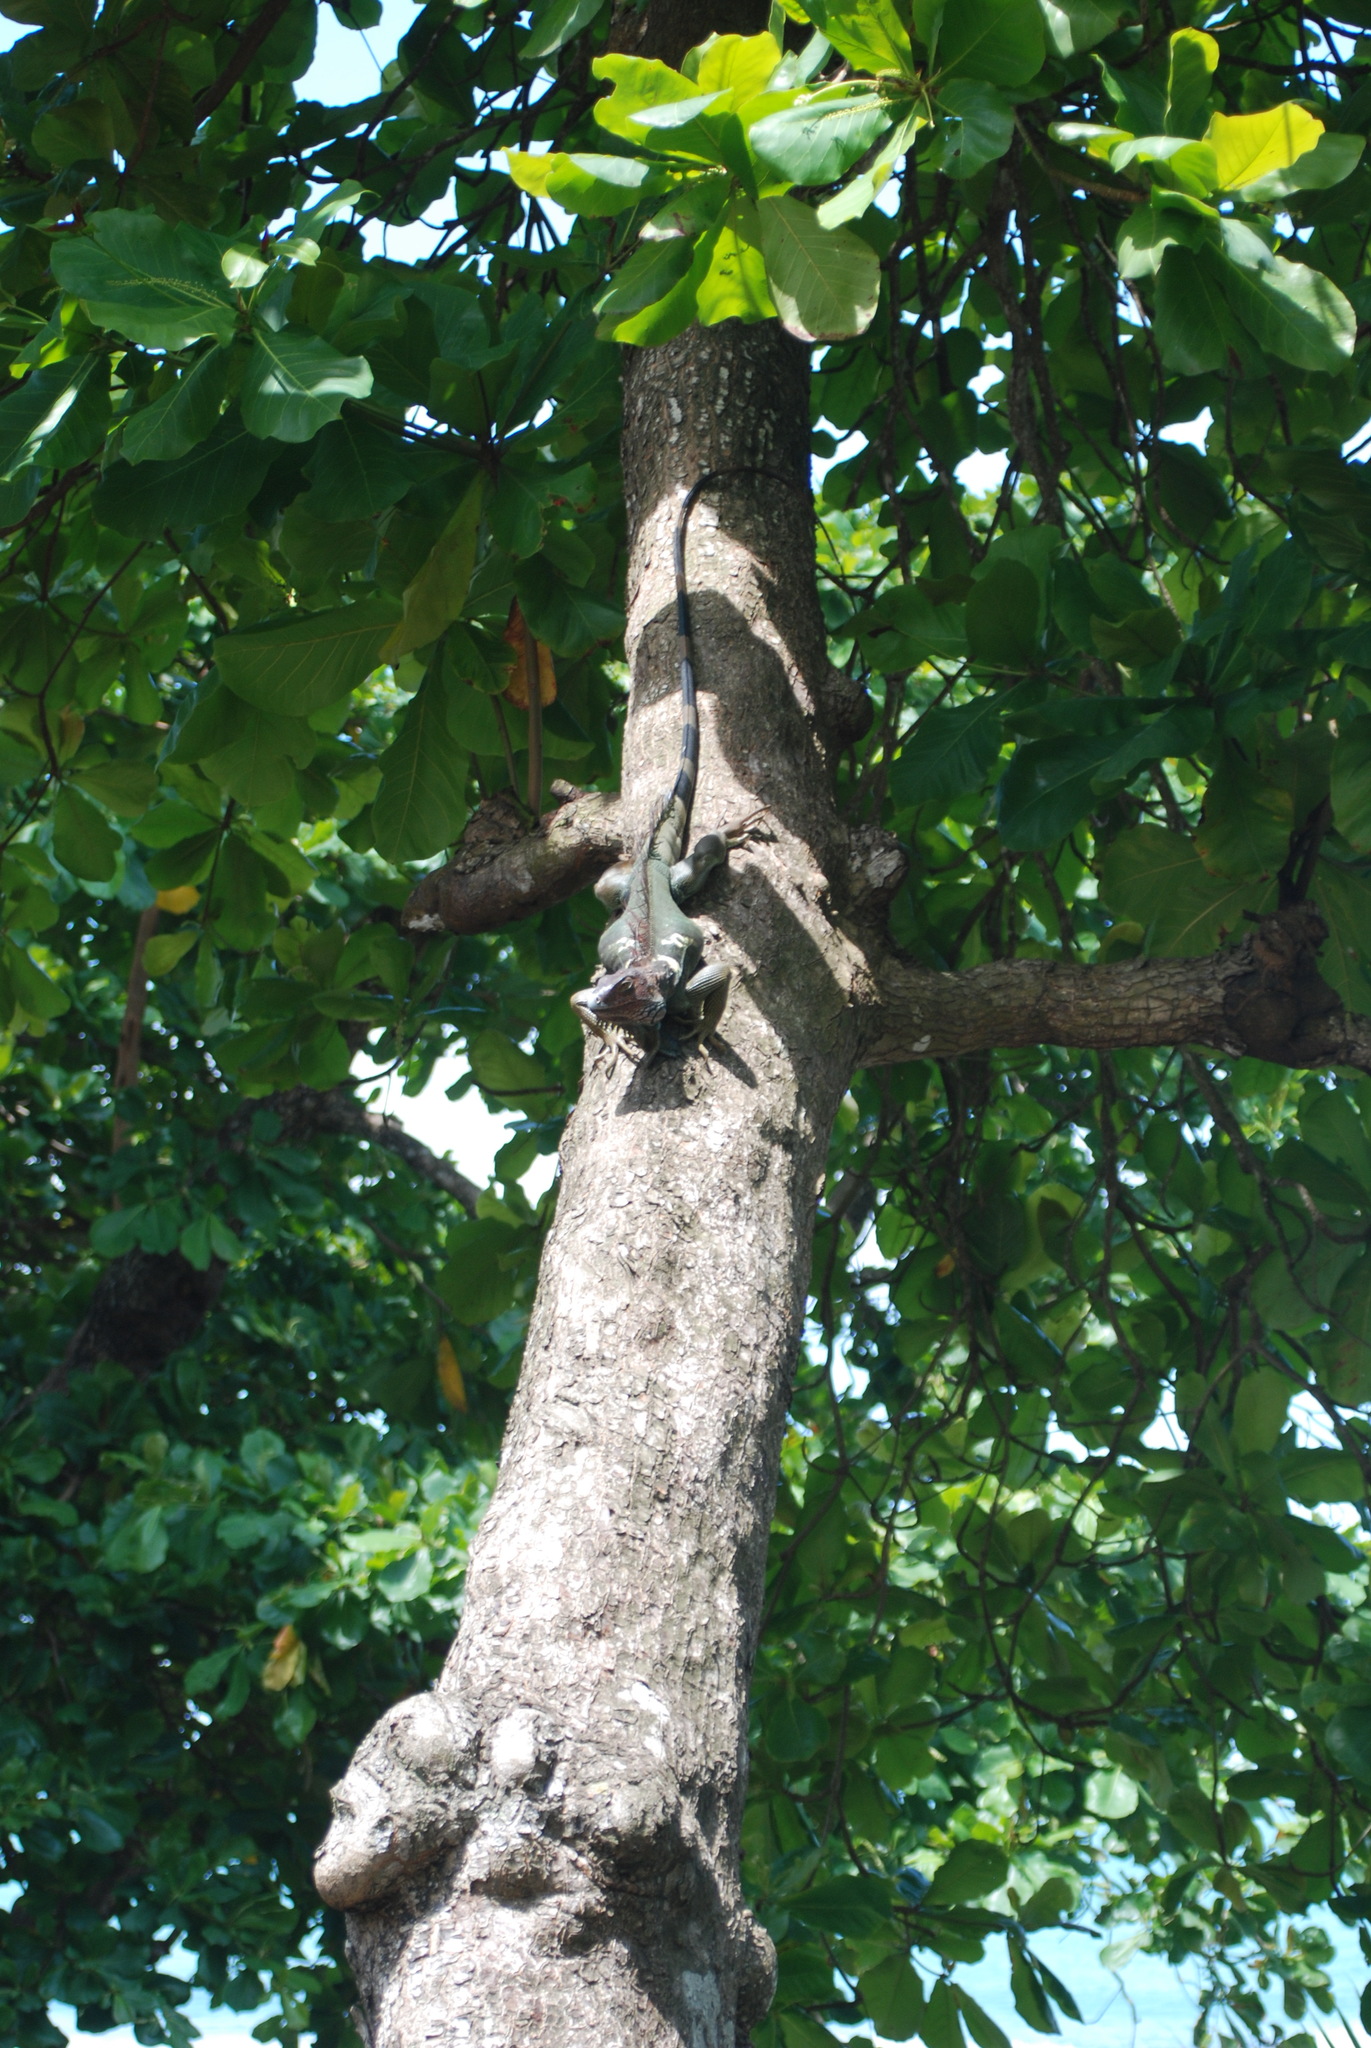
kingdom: Animalia
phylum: Chordata
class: Squamata
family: Iguanidae
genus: Iguana
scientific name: Iguana iguana
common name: Green iguana
